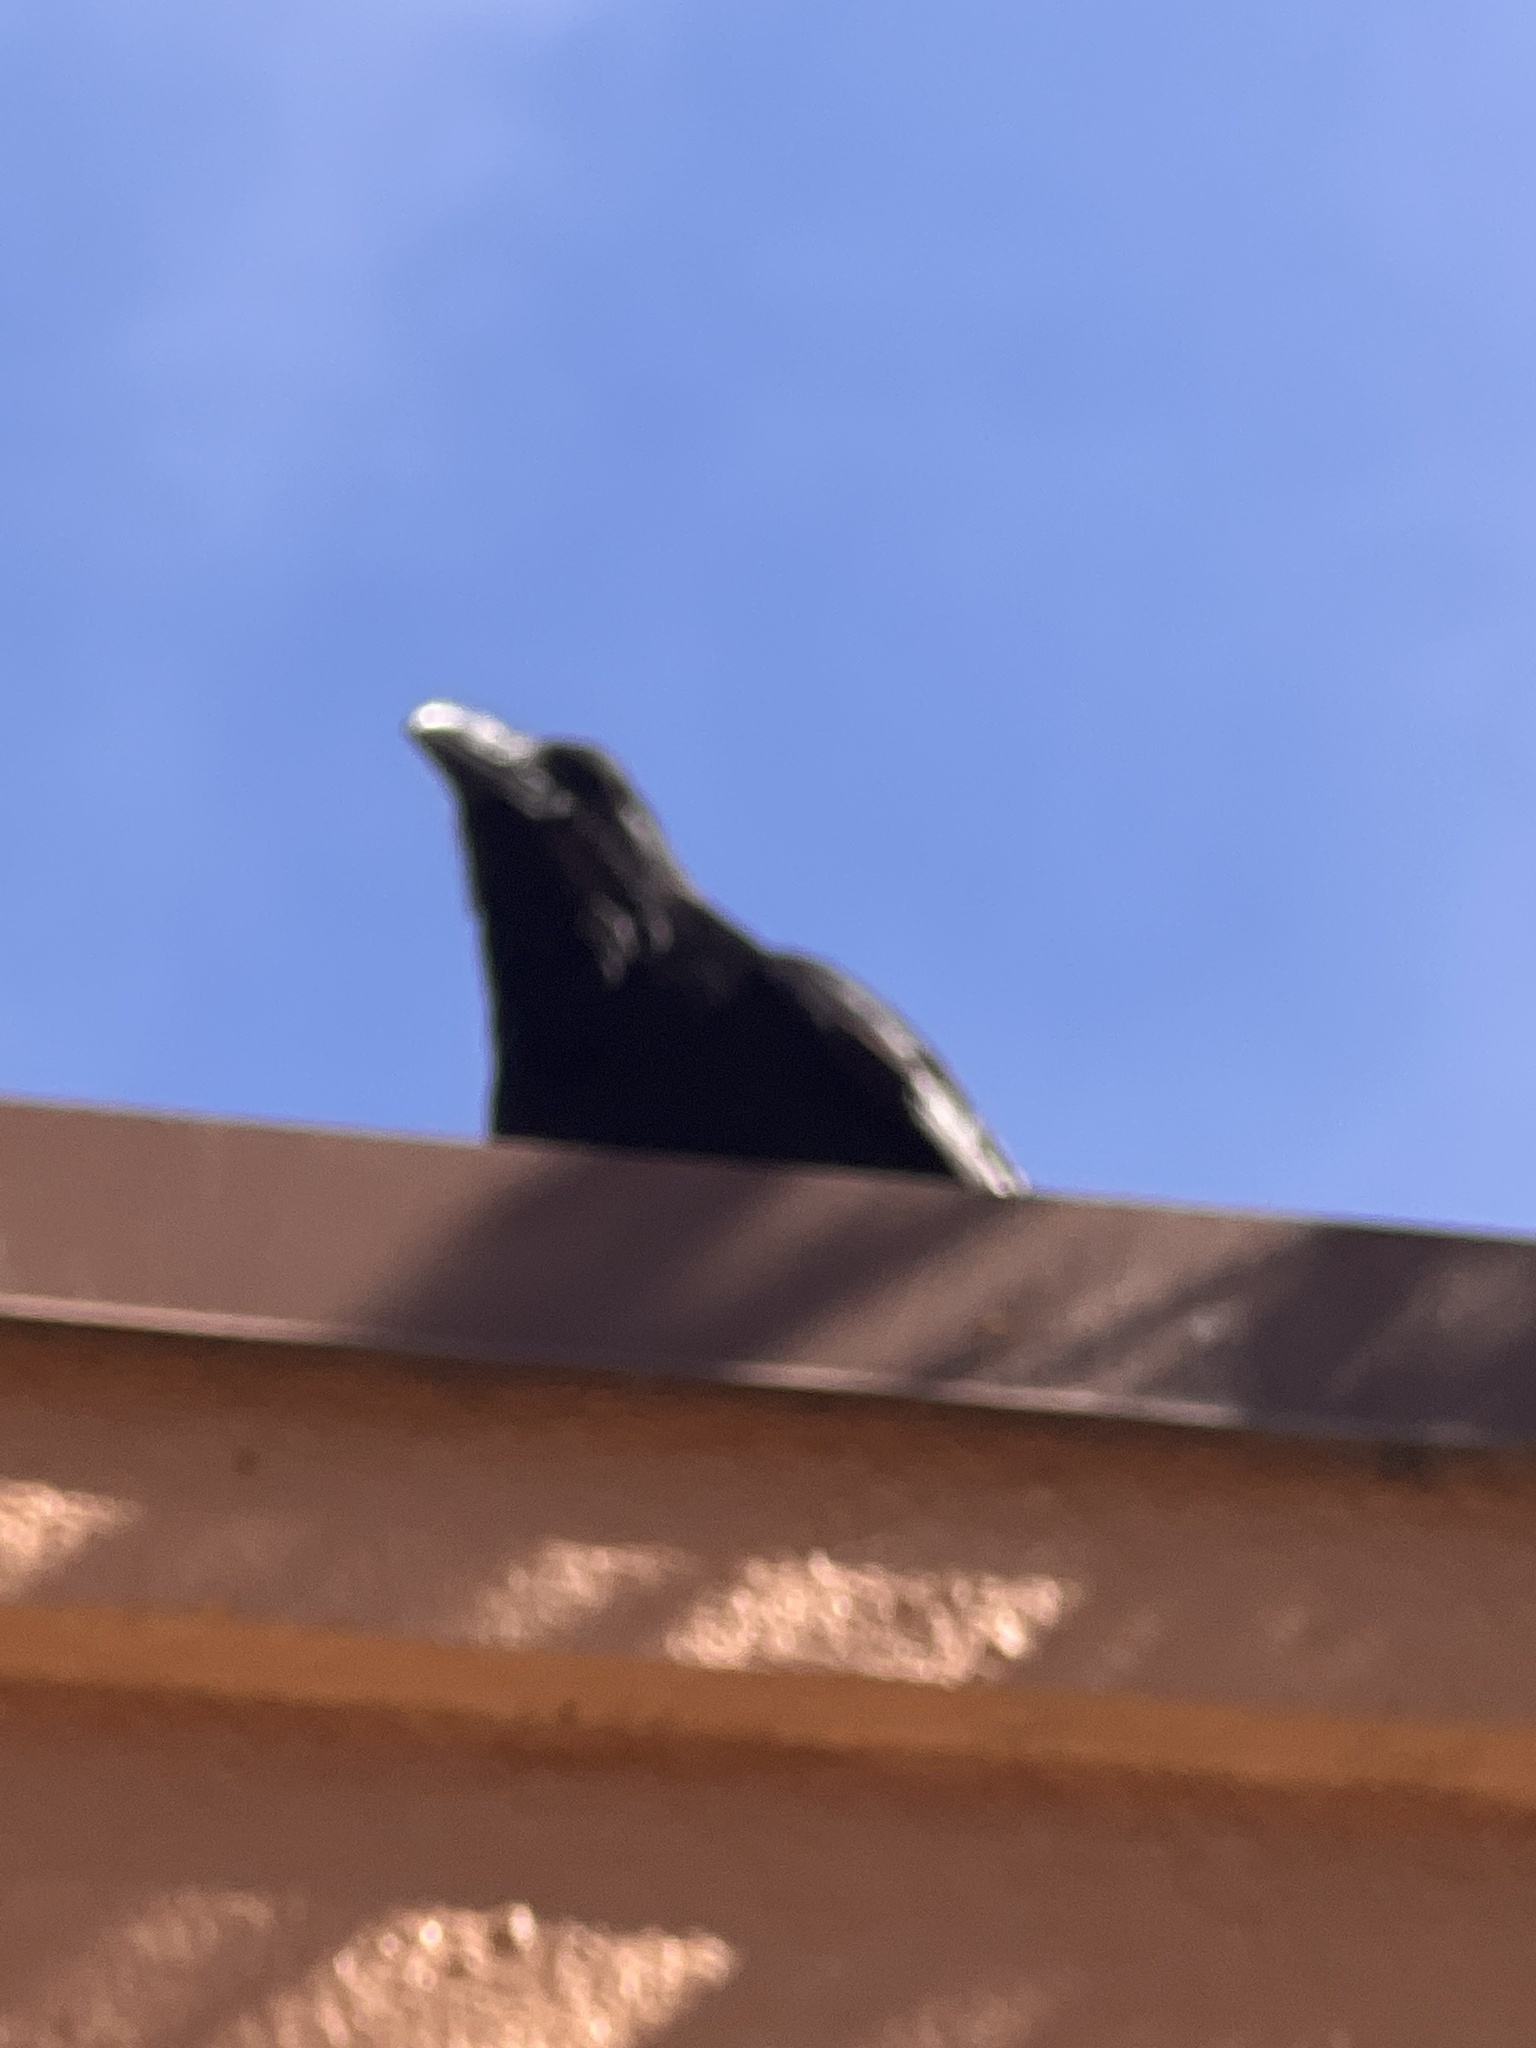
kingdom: Animalia
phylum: Chordata
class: Aves
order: Passeriformes
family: Corvidae
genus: Corvus
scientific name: Corvus corax
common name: Common raven
